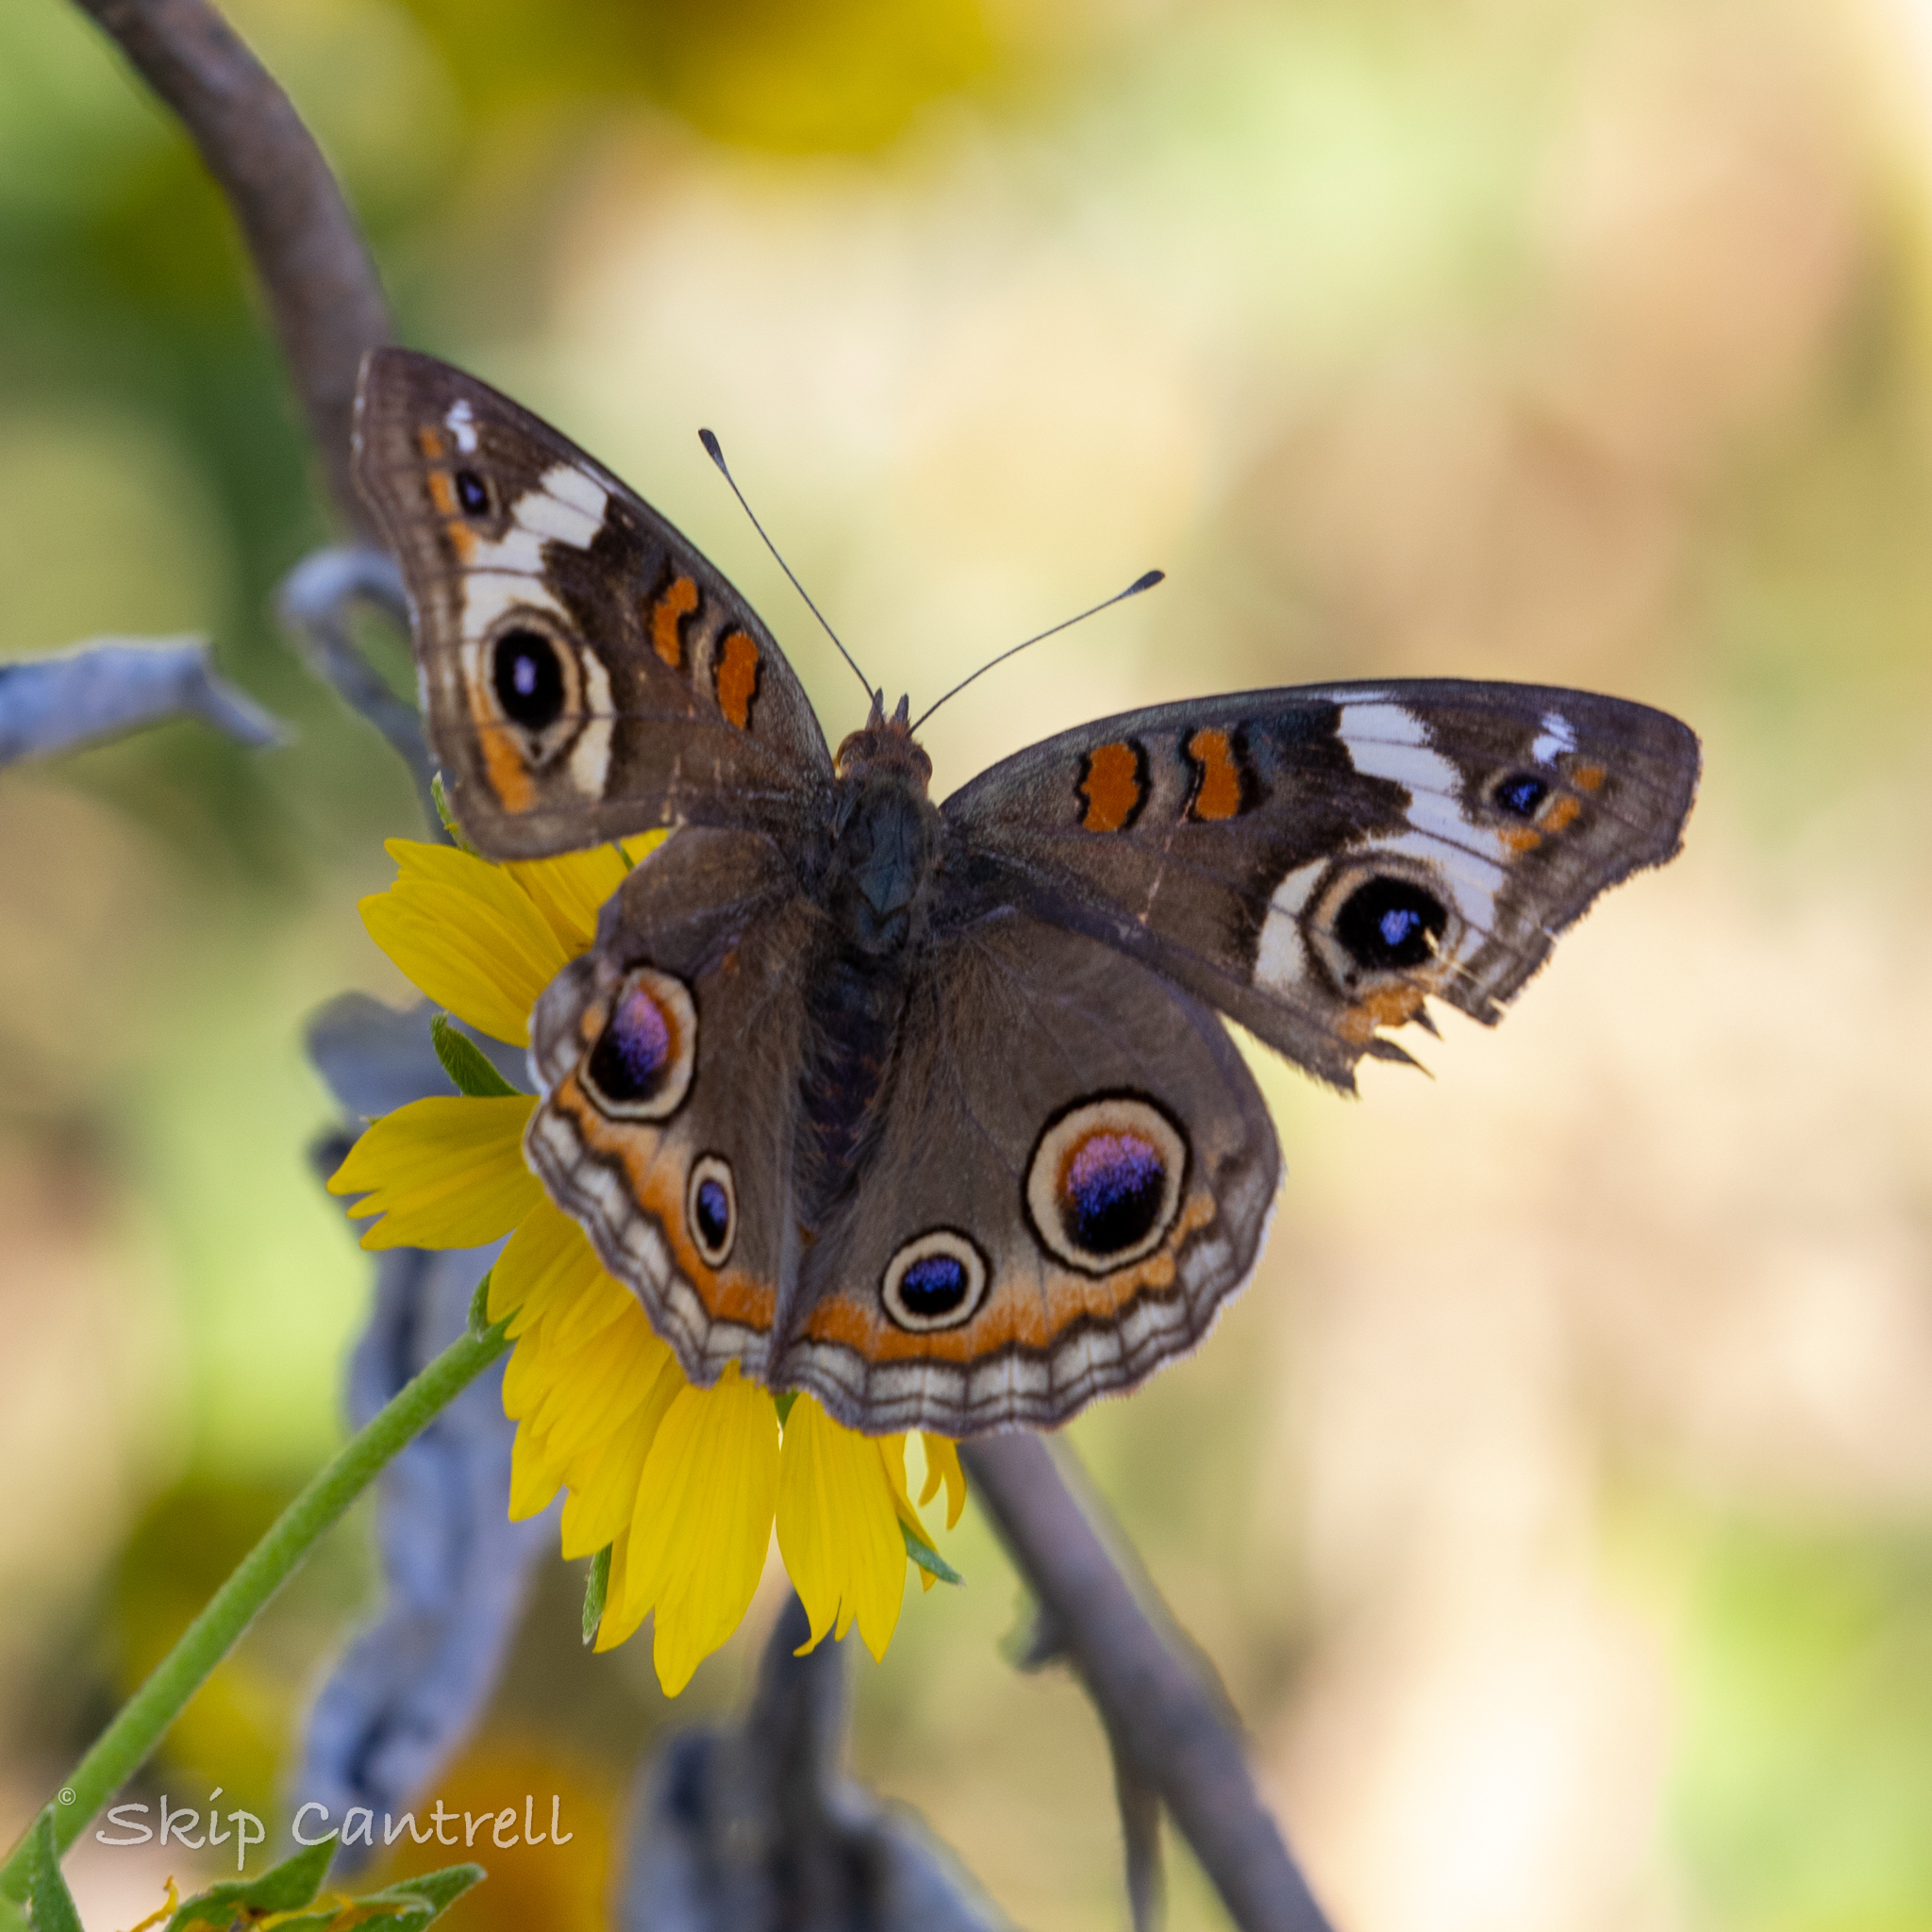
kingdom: Animalia
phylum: Arthropoda
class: Insecta
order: Lepidoptera
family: Nymphalidae
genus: Junonia
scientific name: Junonia coenia
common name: Common buckeye
